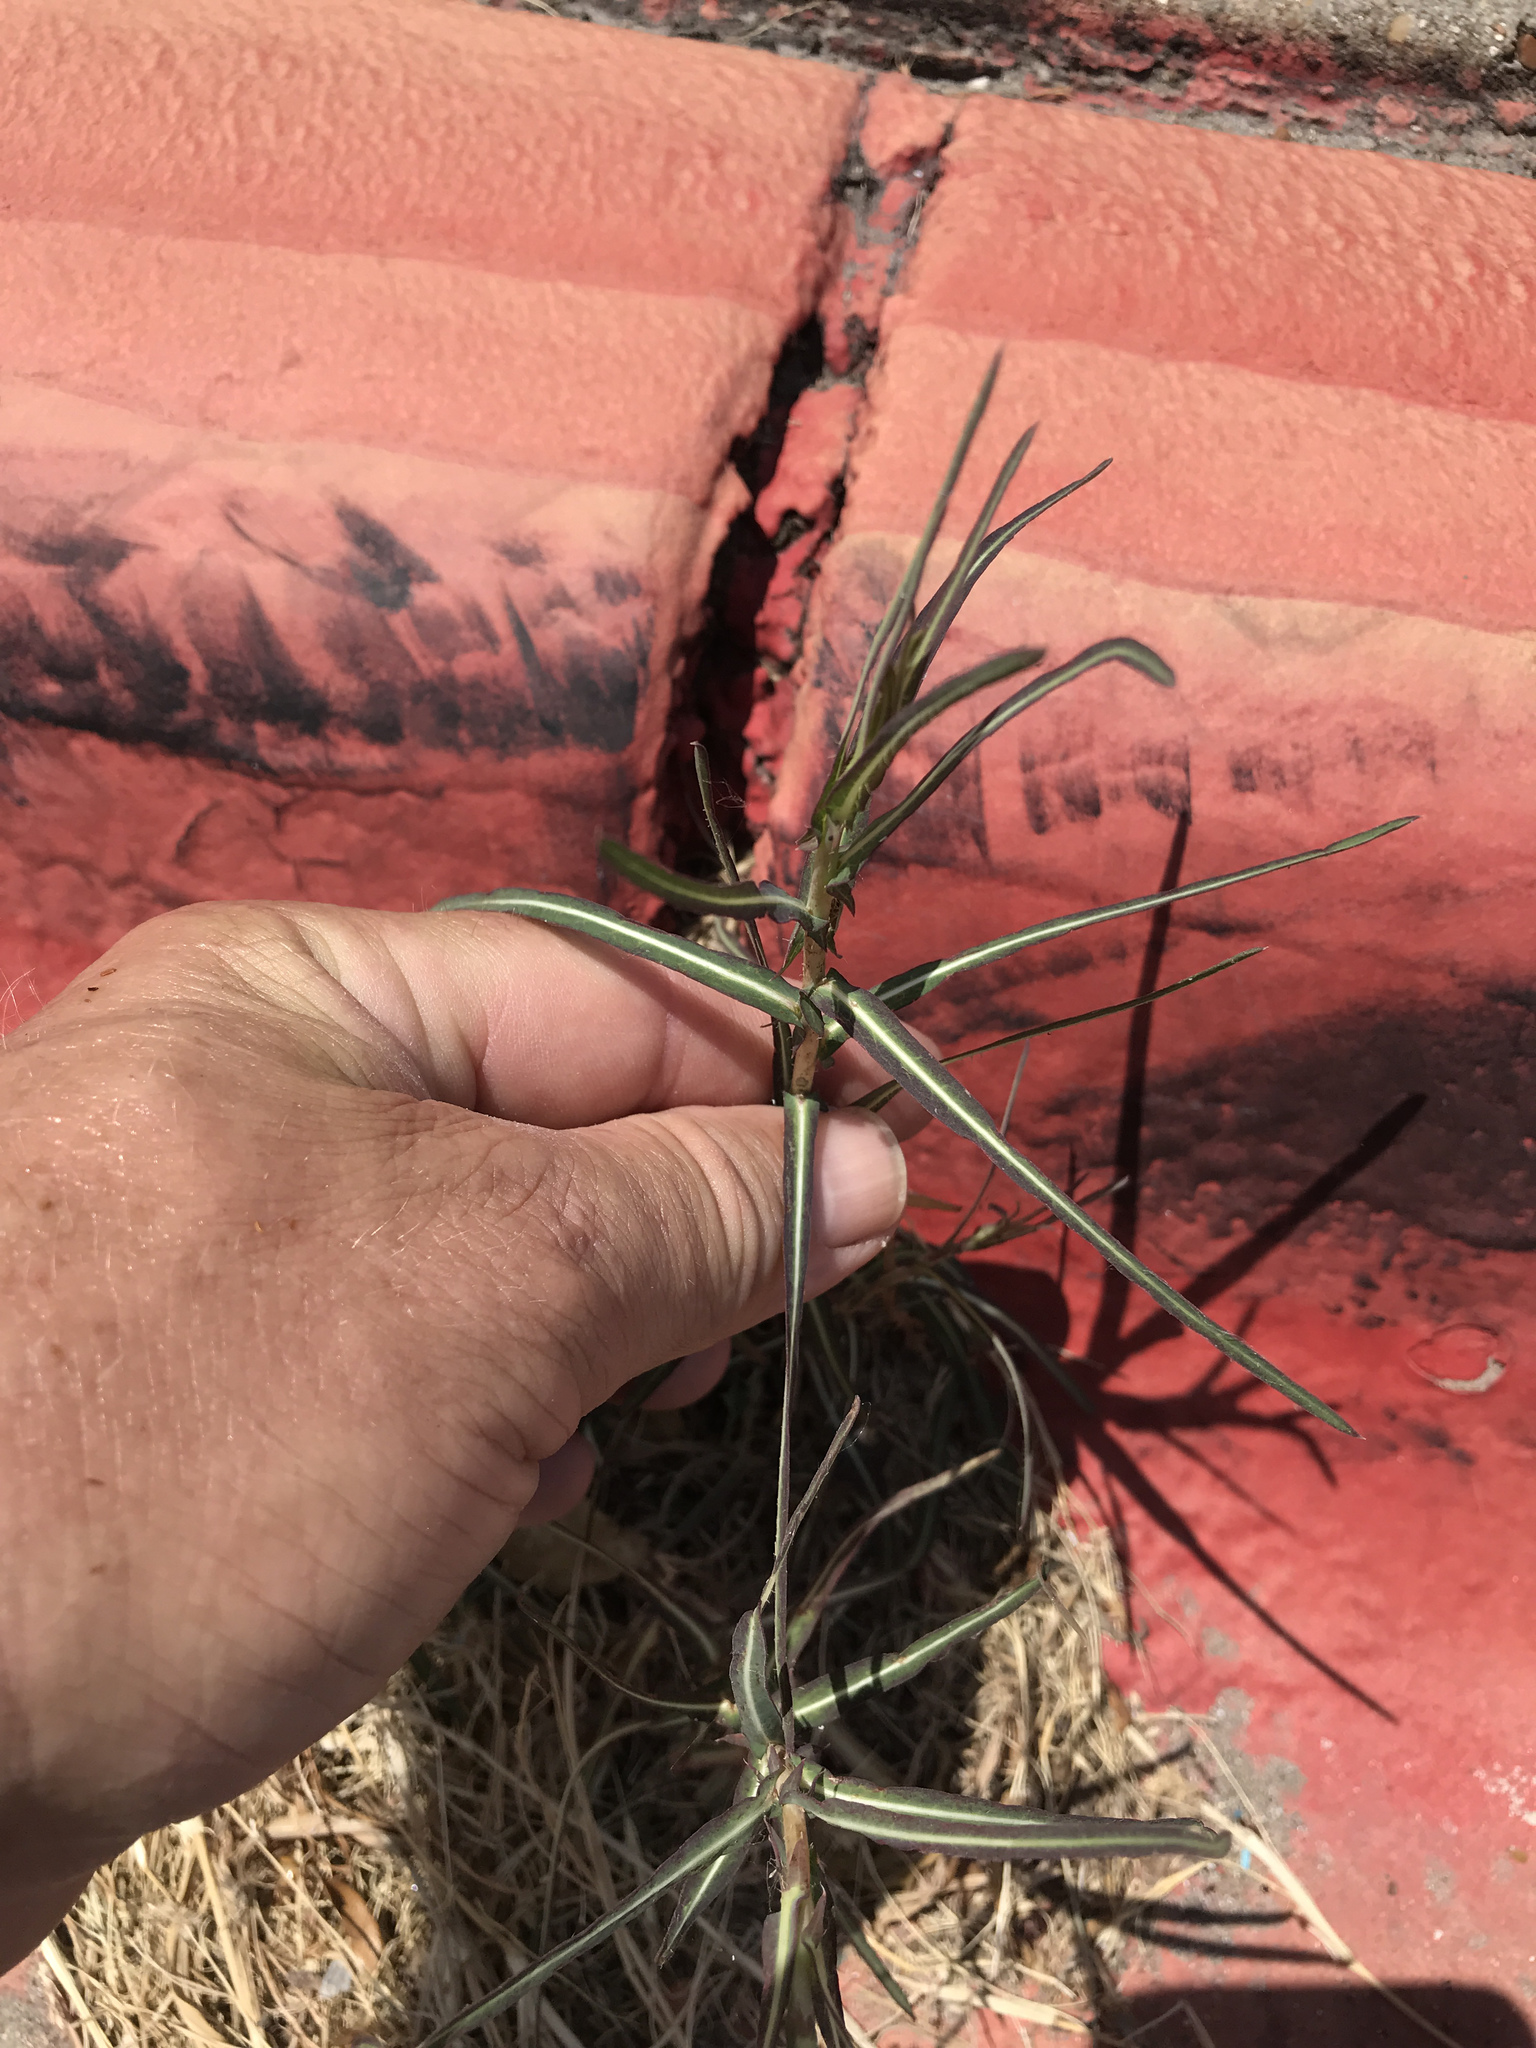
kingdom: Plantae
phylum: Tracheophyta
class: Magnoliopsida
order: Asterales
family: Asteraceae
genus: Lactuca
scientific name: Lactuca saligna
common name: Wild lettuce
